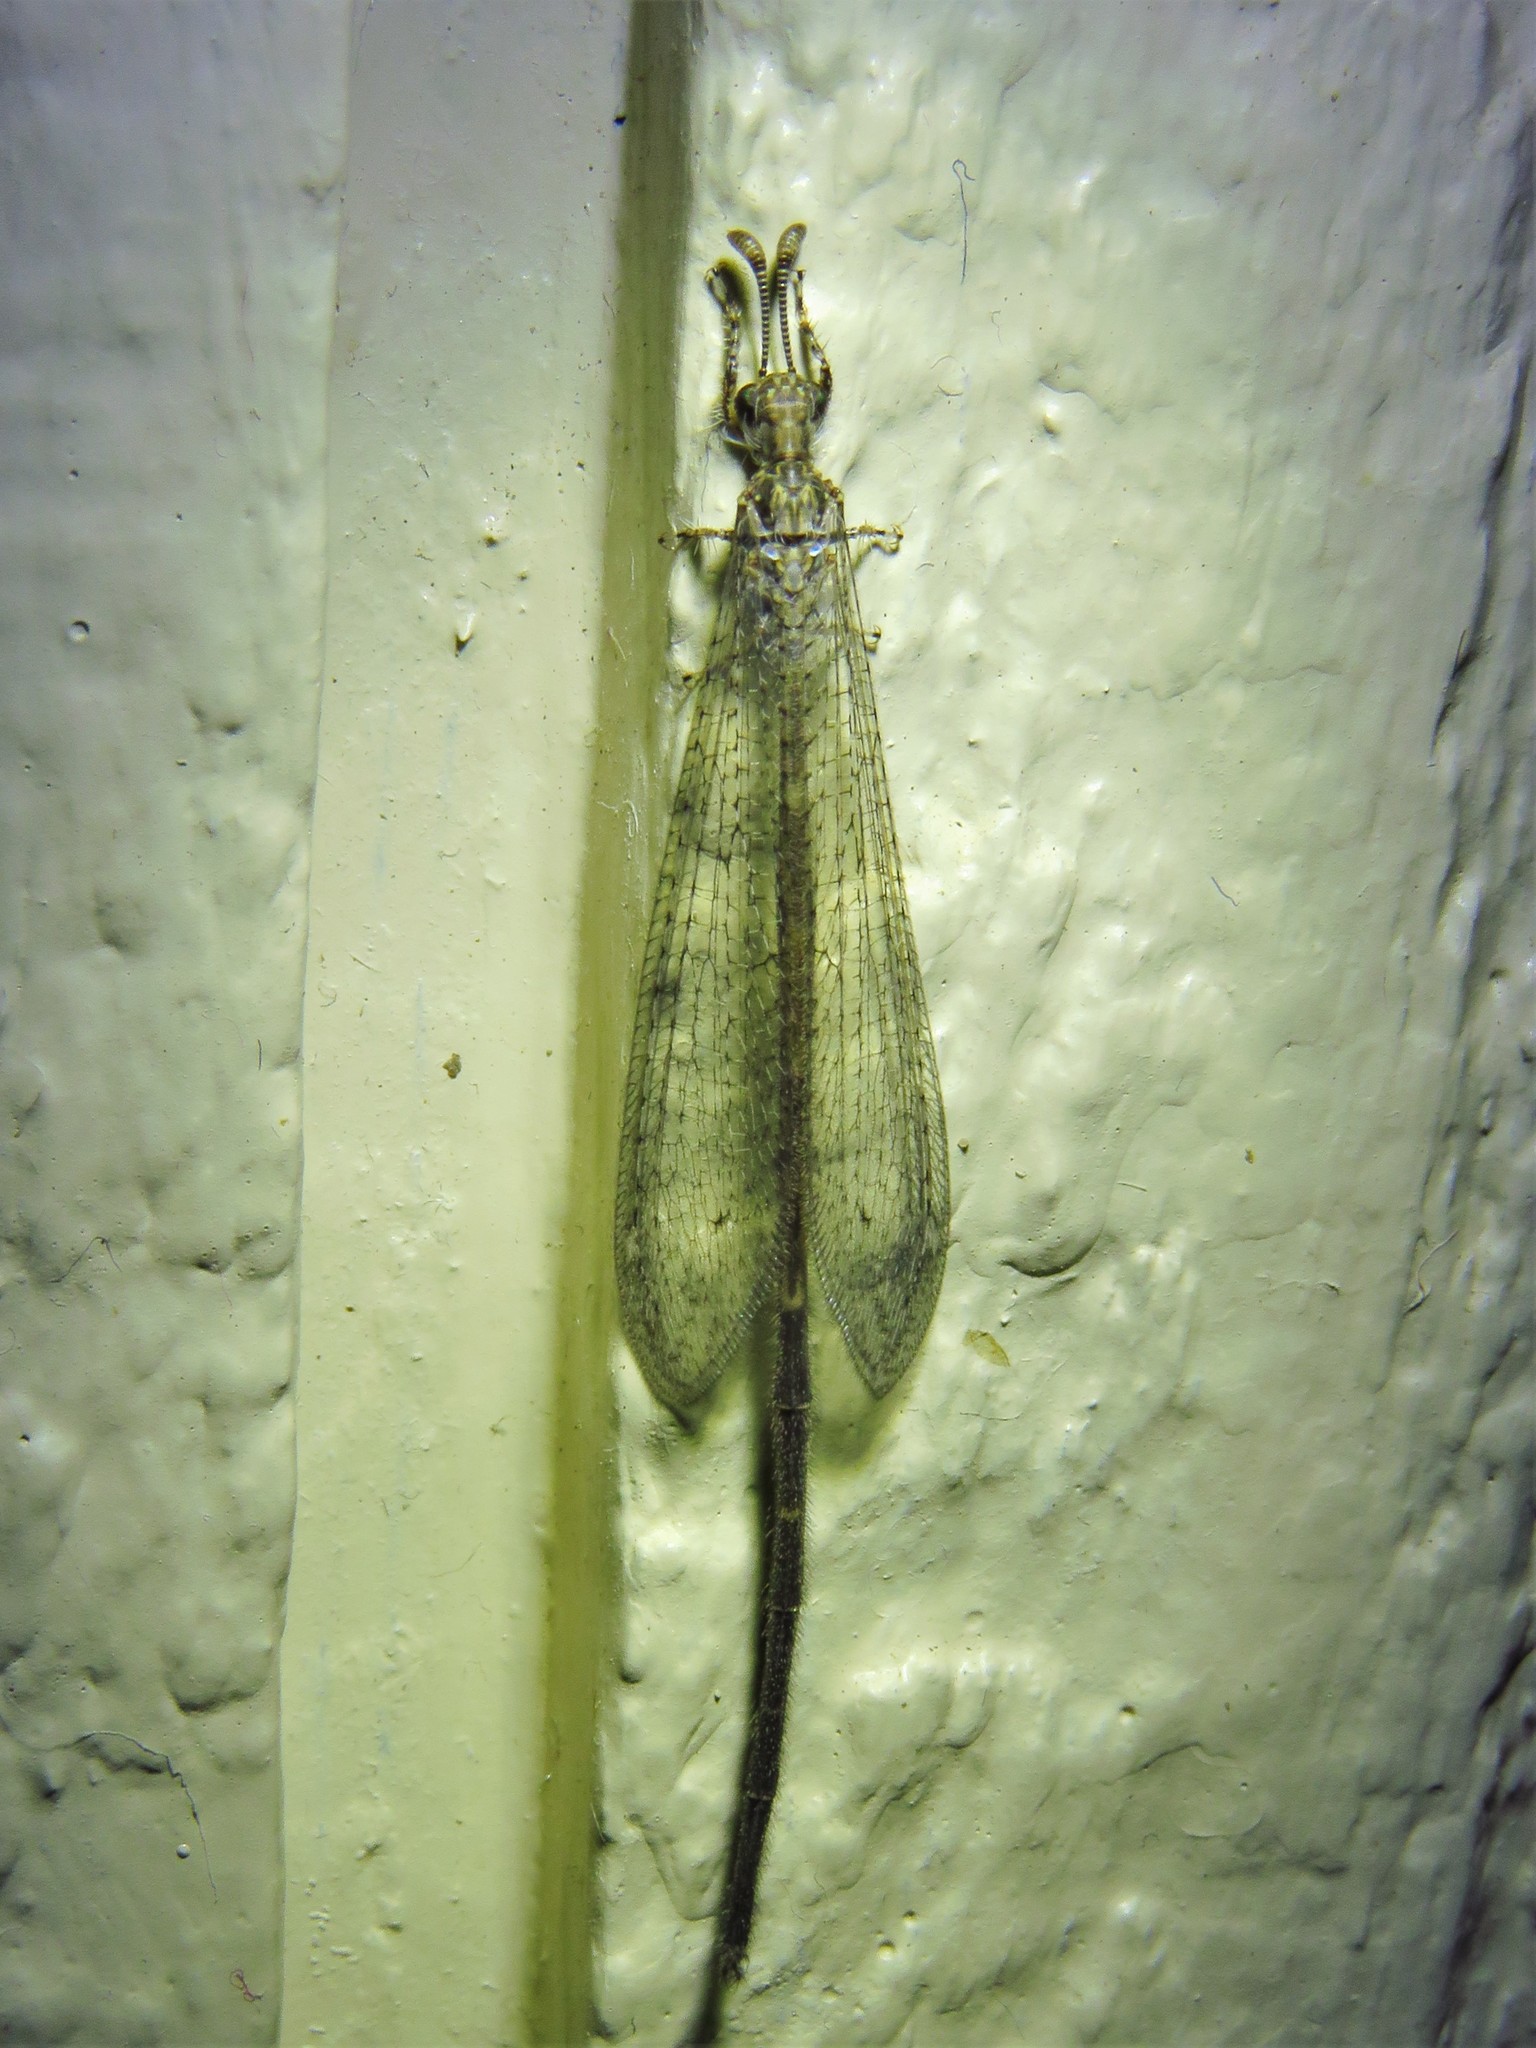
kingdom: Animalia
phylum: Arthropoda
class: Insecta
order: Neuroptera
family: Myrmeleontidae
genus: Peruveleon
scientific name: Peruveleon dorsalis
